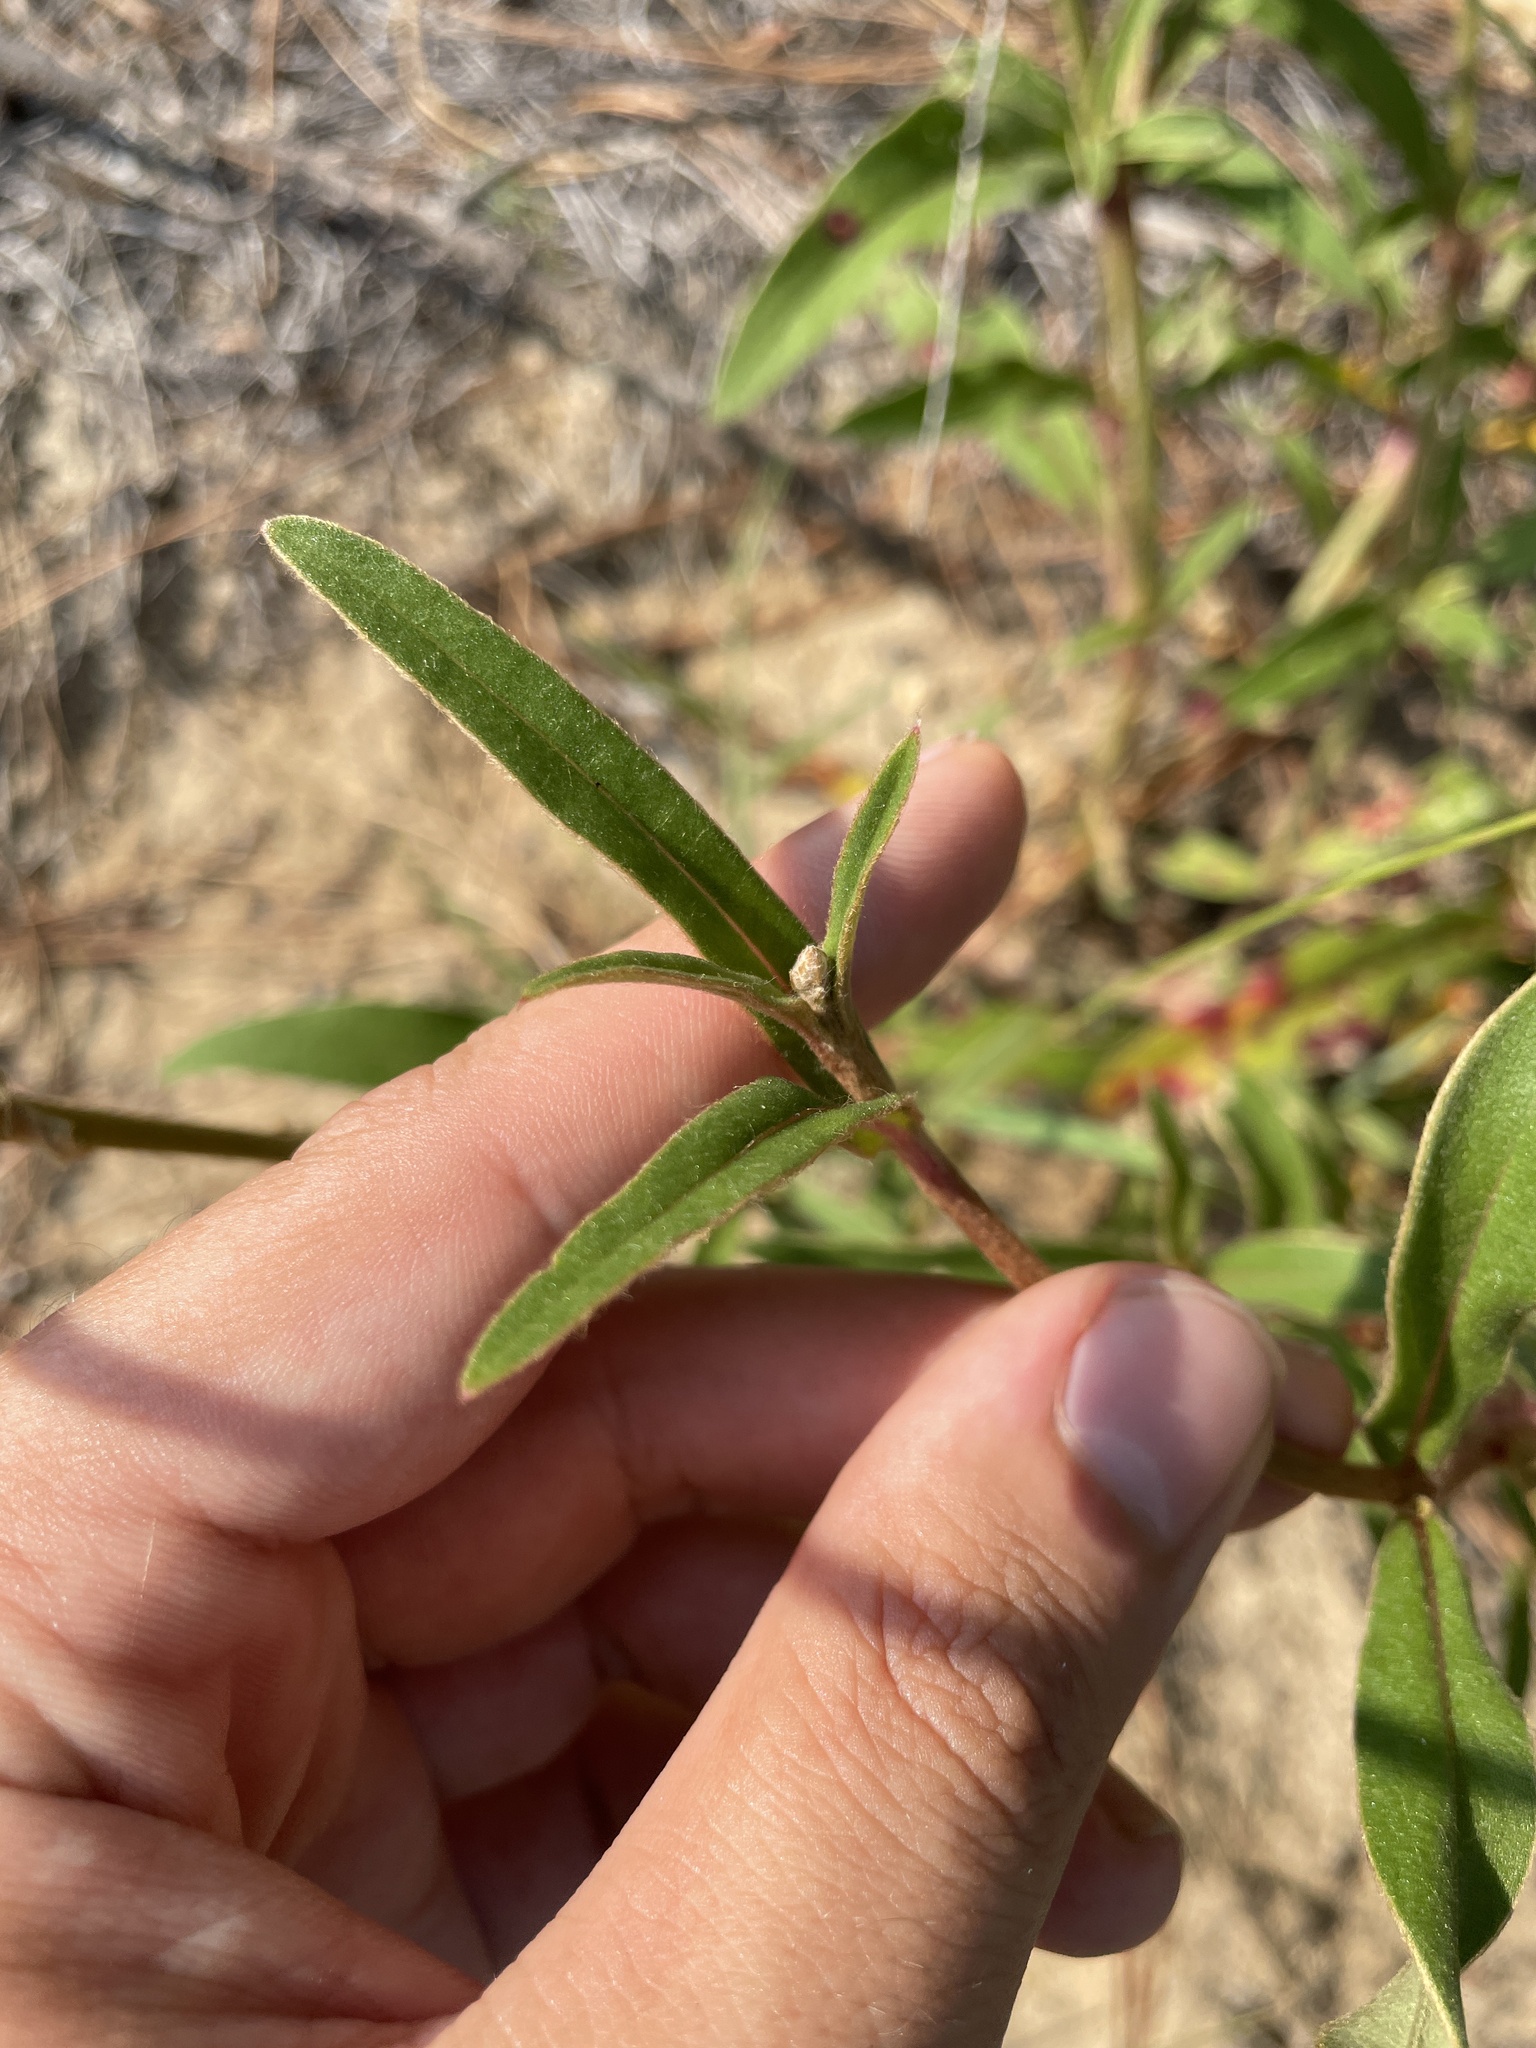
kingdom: Plantae
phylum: Tracheophyta
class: Magnoliopsida
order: Caryophyllales
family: Amaranthaceae
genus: Froelichia
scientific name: Froelichia floridana
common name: Florida snake-cotton
